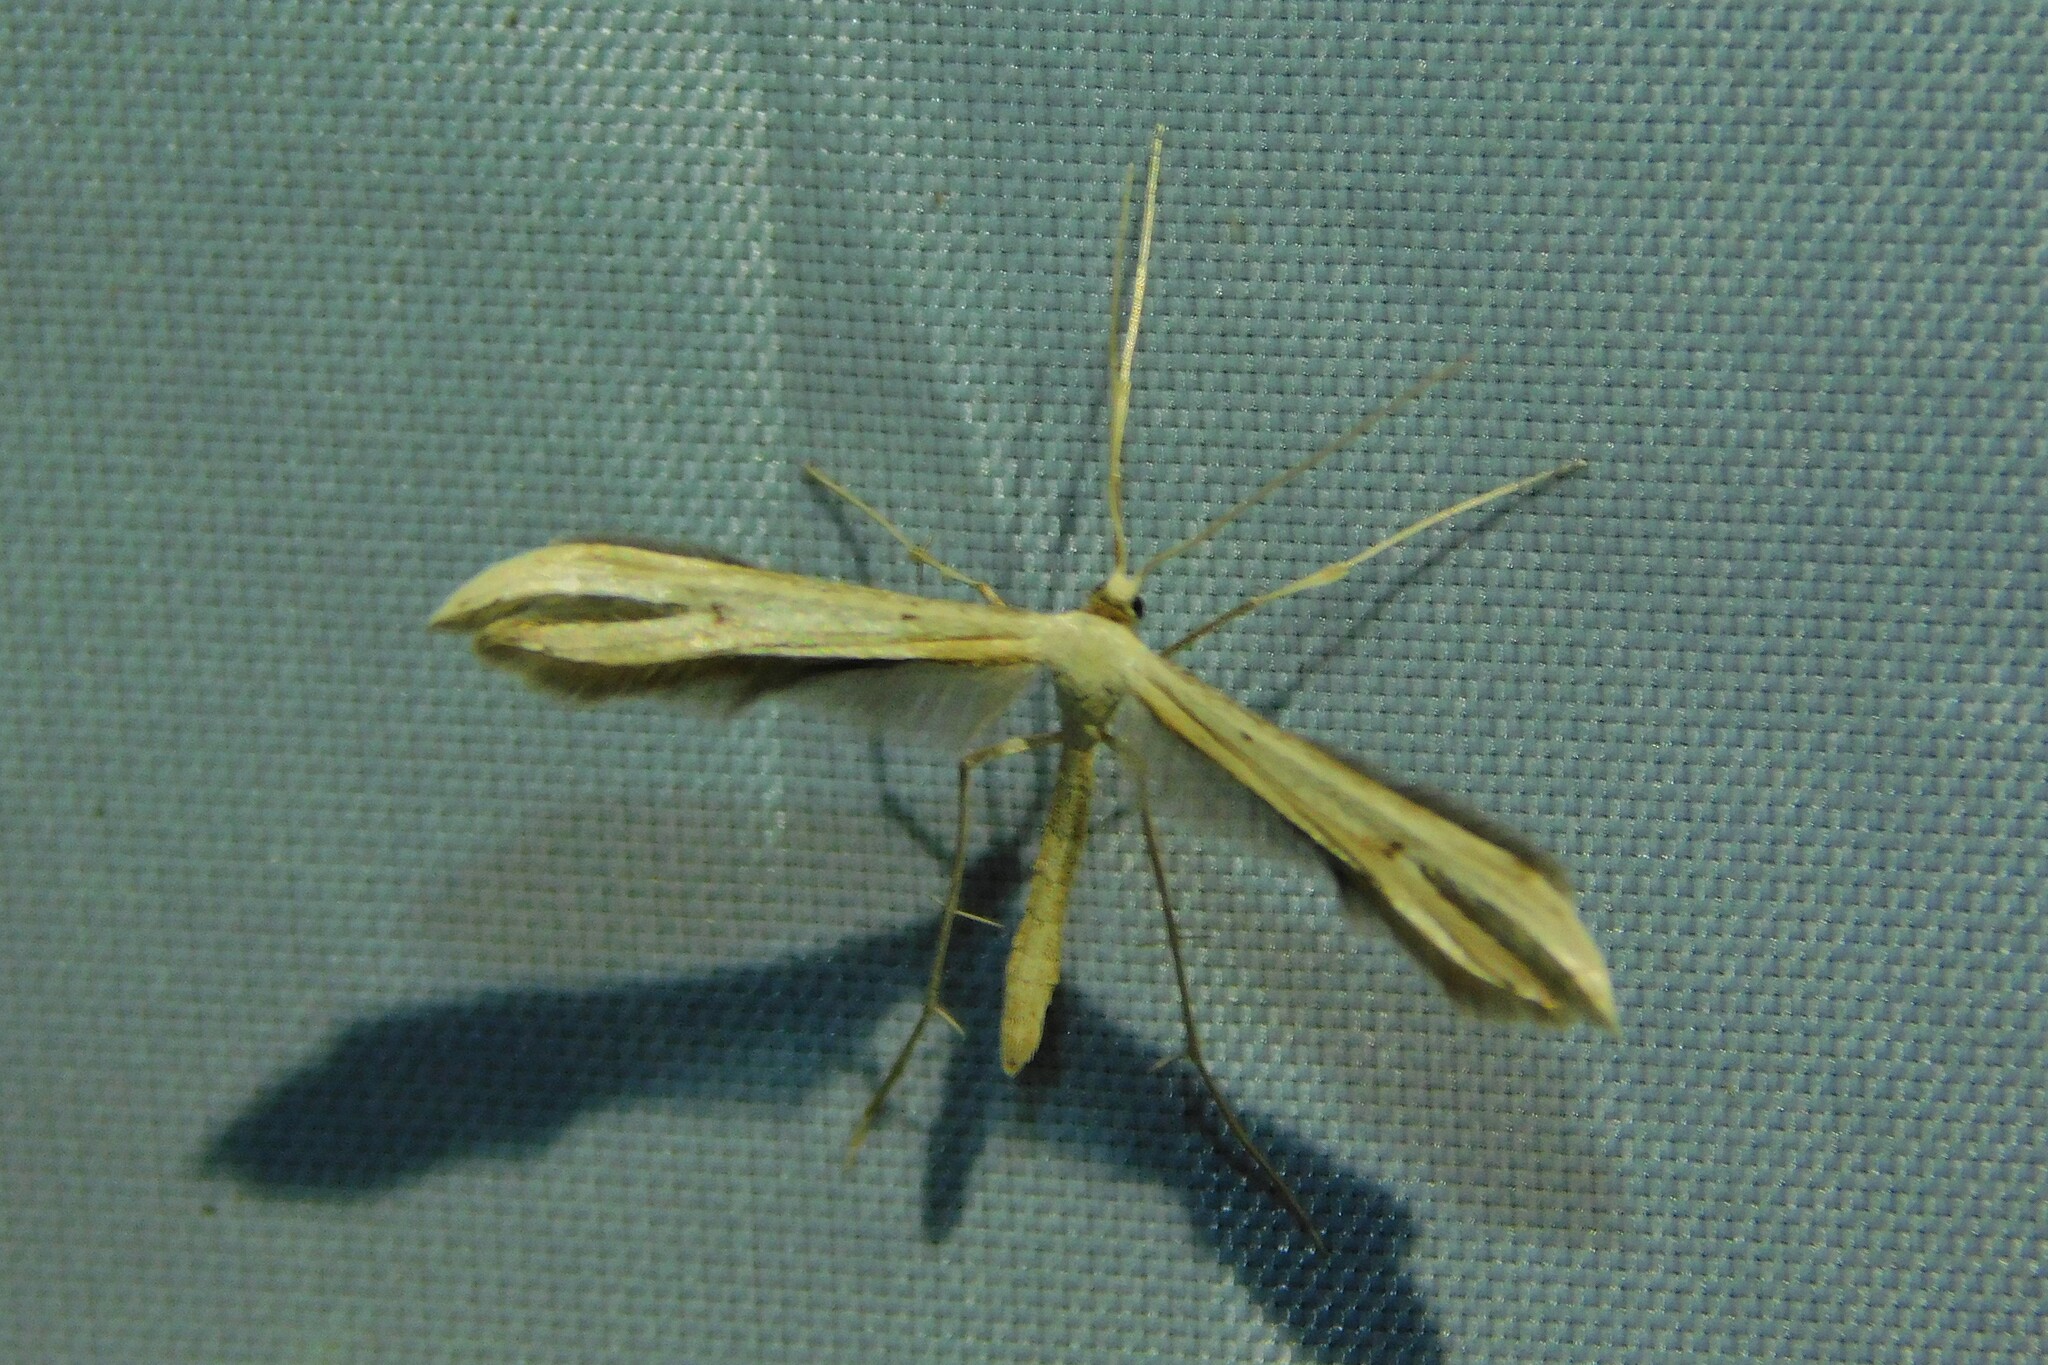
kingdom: Animalia
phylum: Arthropoda
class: Insecta
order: Lepidoptera
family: Pterophoridae
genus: Emmelina
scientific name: Emmelina monodactyla
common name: Common plume
